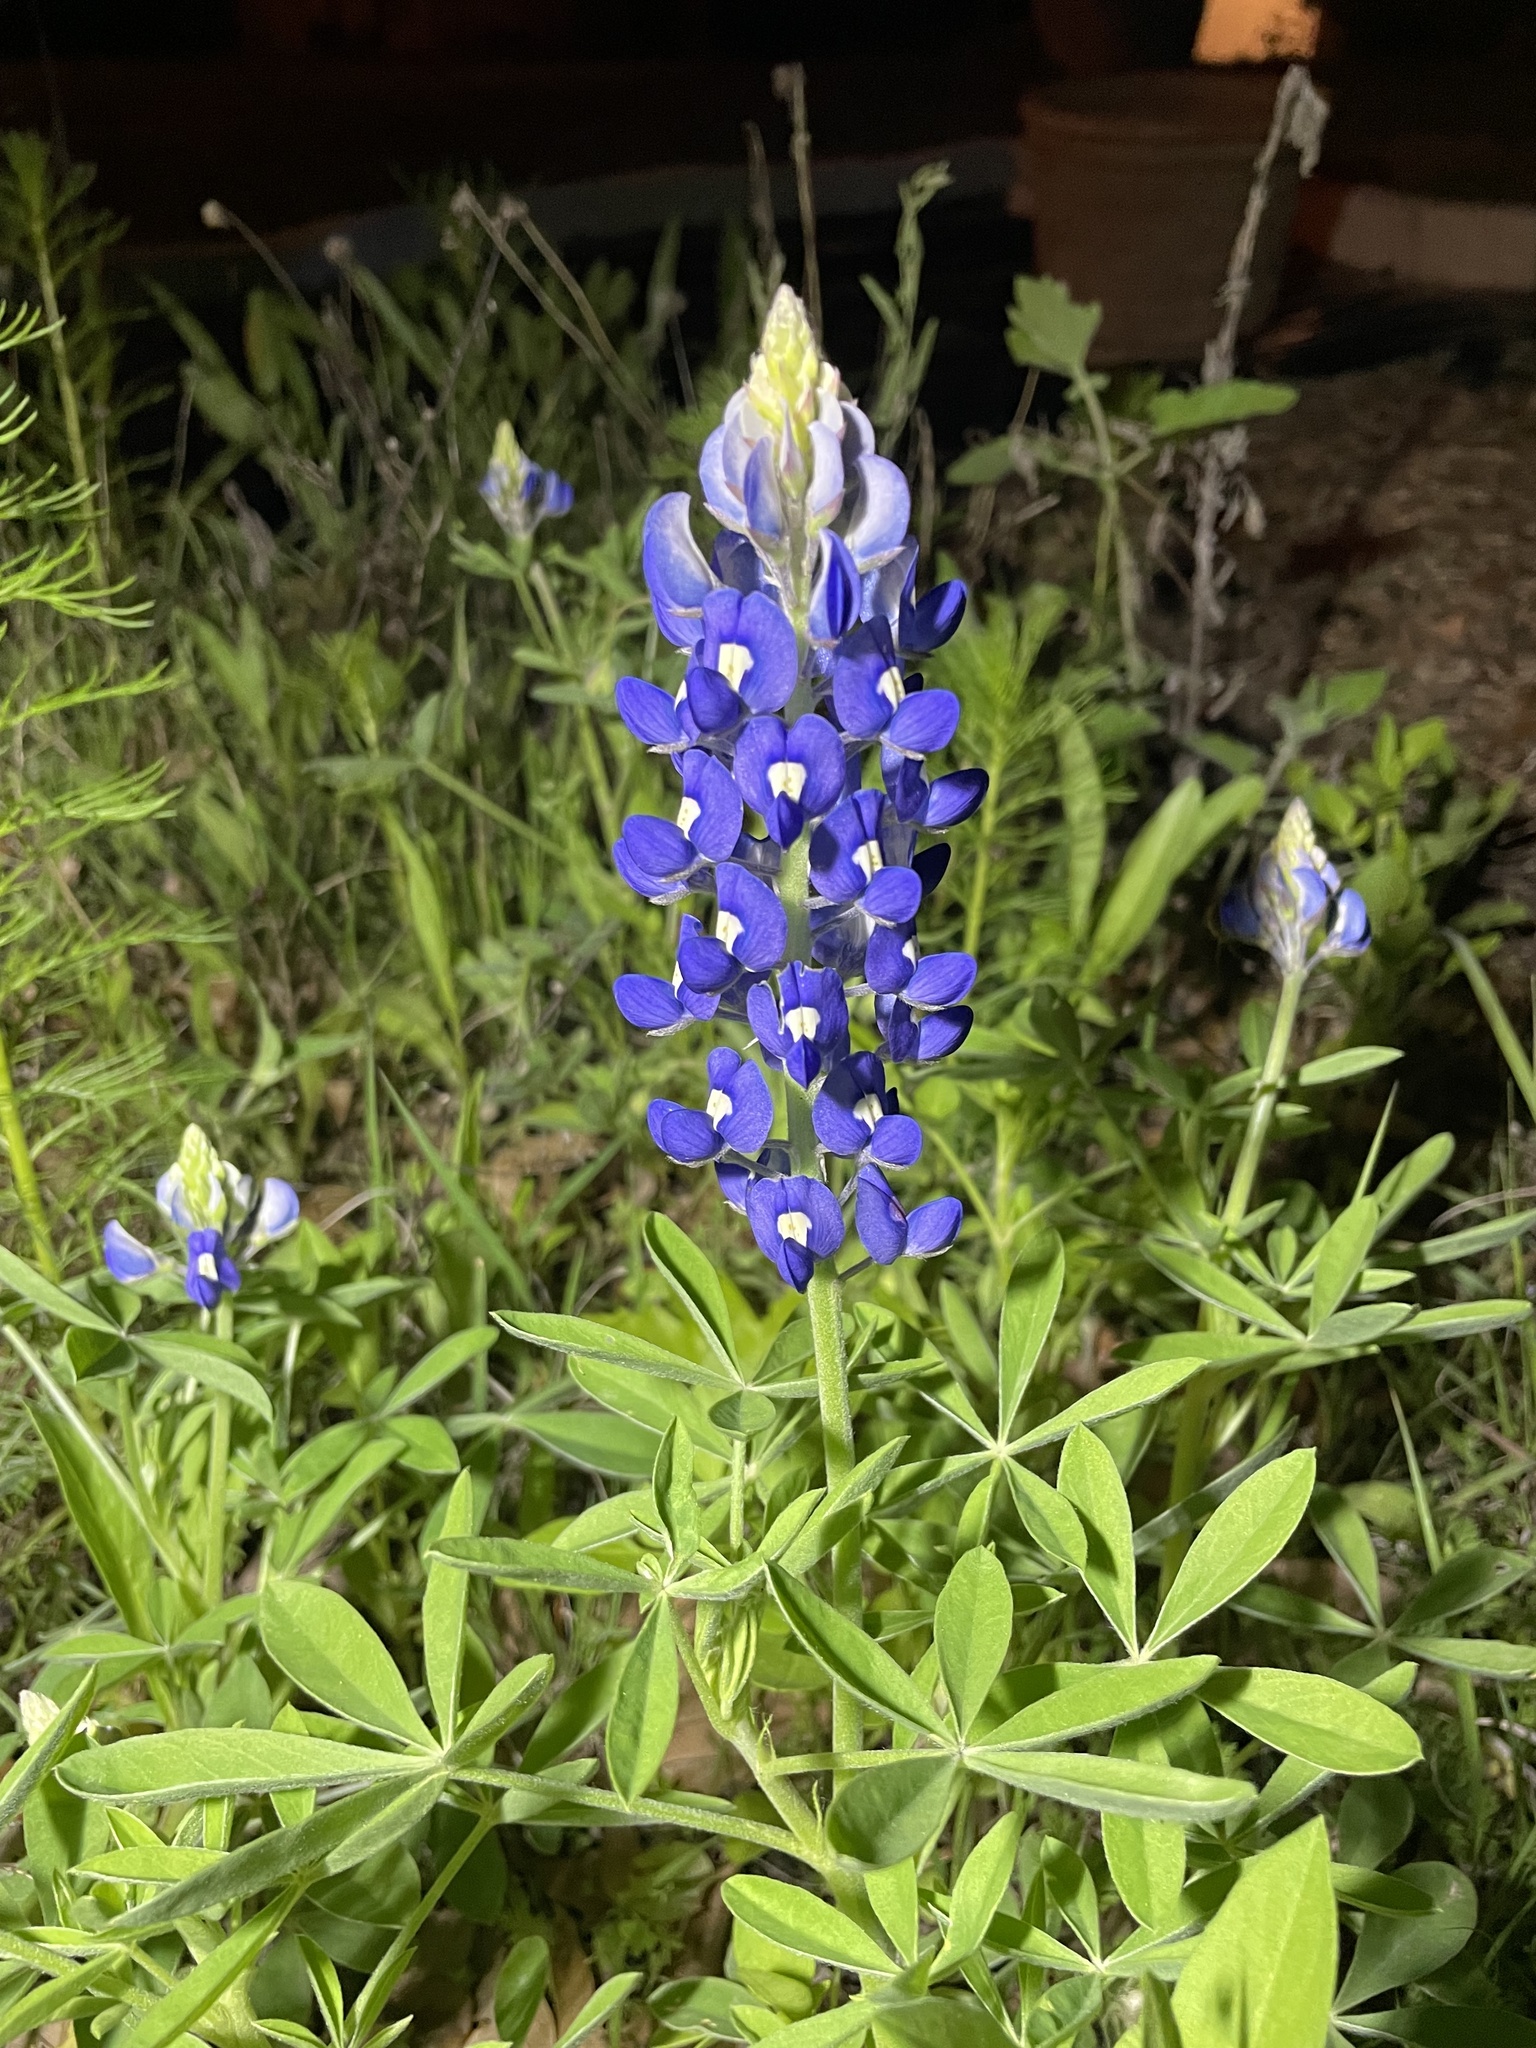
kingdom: Plantae
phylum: Tracheophyta
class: Magnoliopsida
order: Fabales
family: Fabaceae
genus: Lupinus
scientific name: Lupinus texensis
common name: Texas bluebonnet
